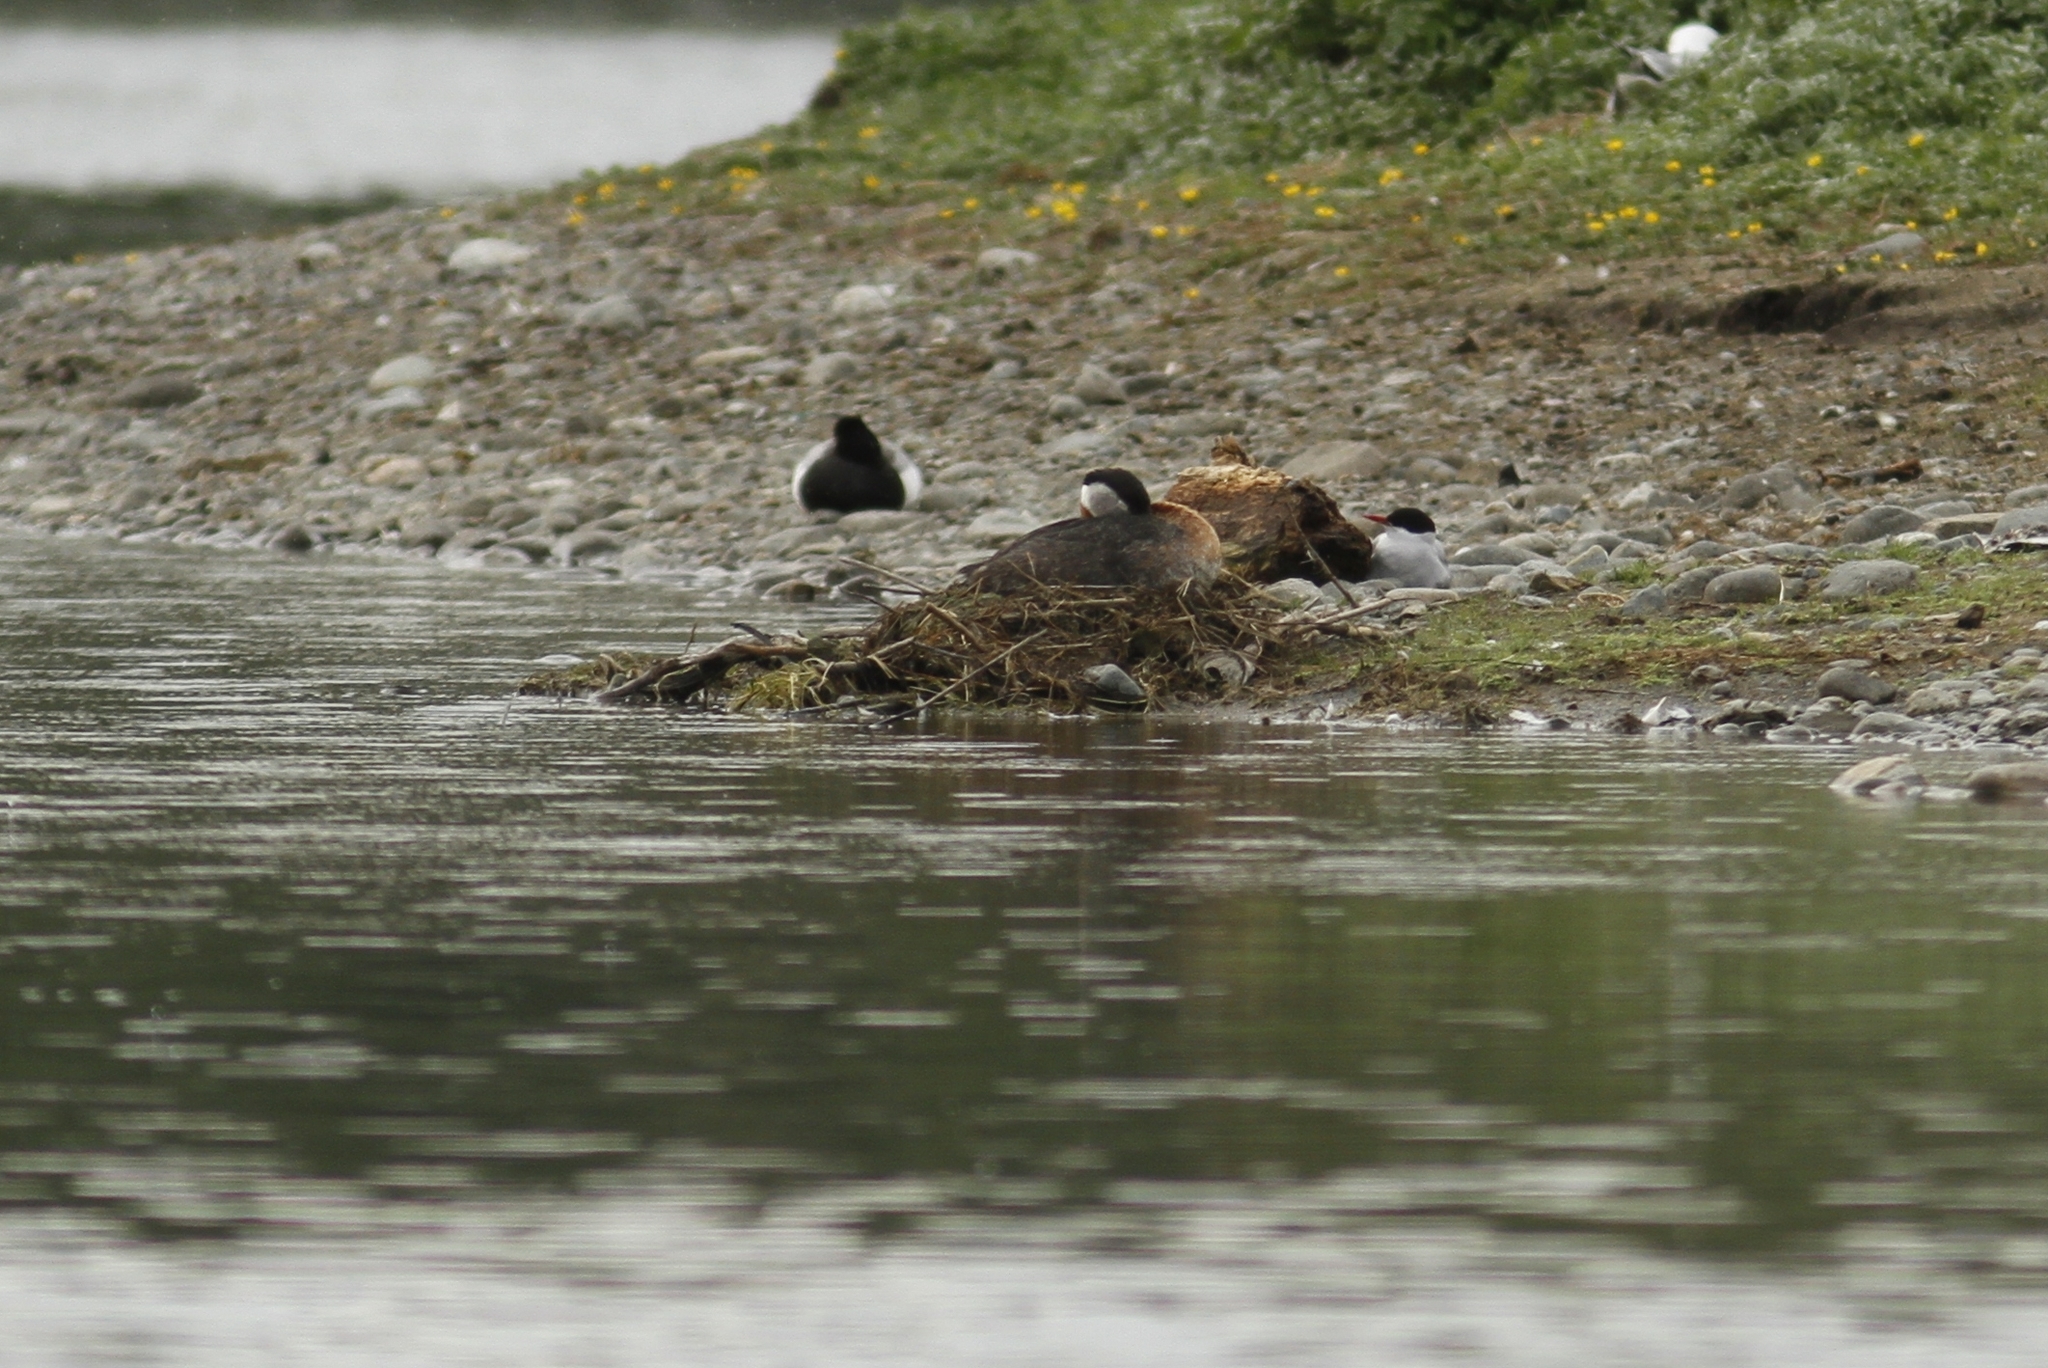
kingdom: Animalia
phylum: Chordata
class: Aves
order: Podicipediformes
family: Podicipedidae
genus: Podiceps
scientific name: Podiceps grisegena
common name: Red-necked grebe
